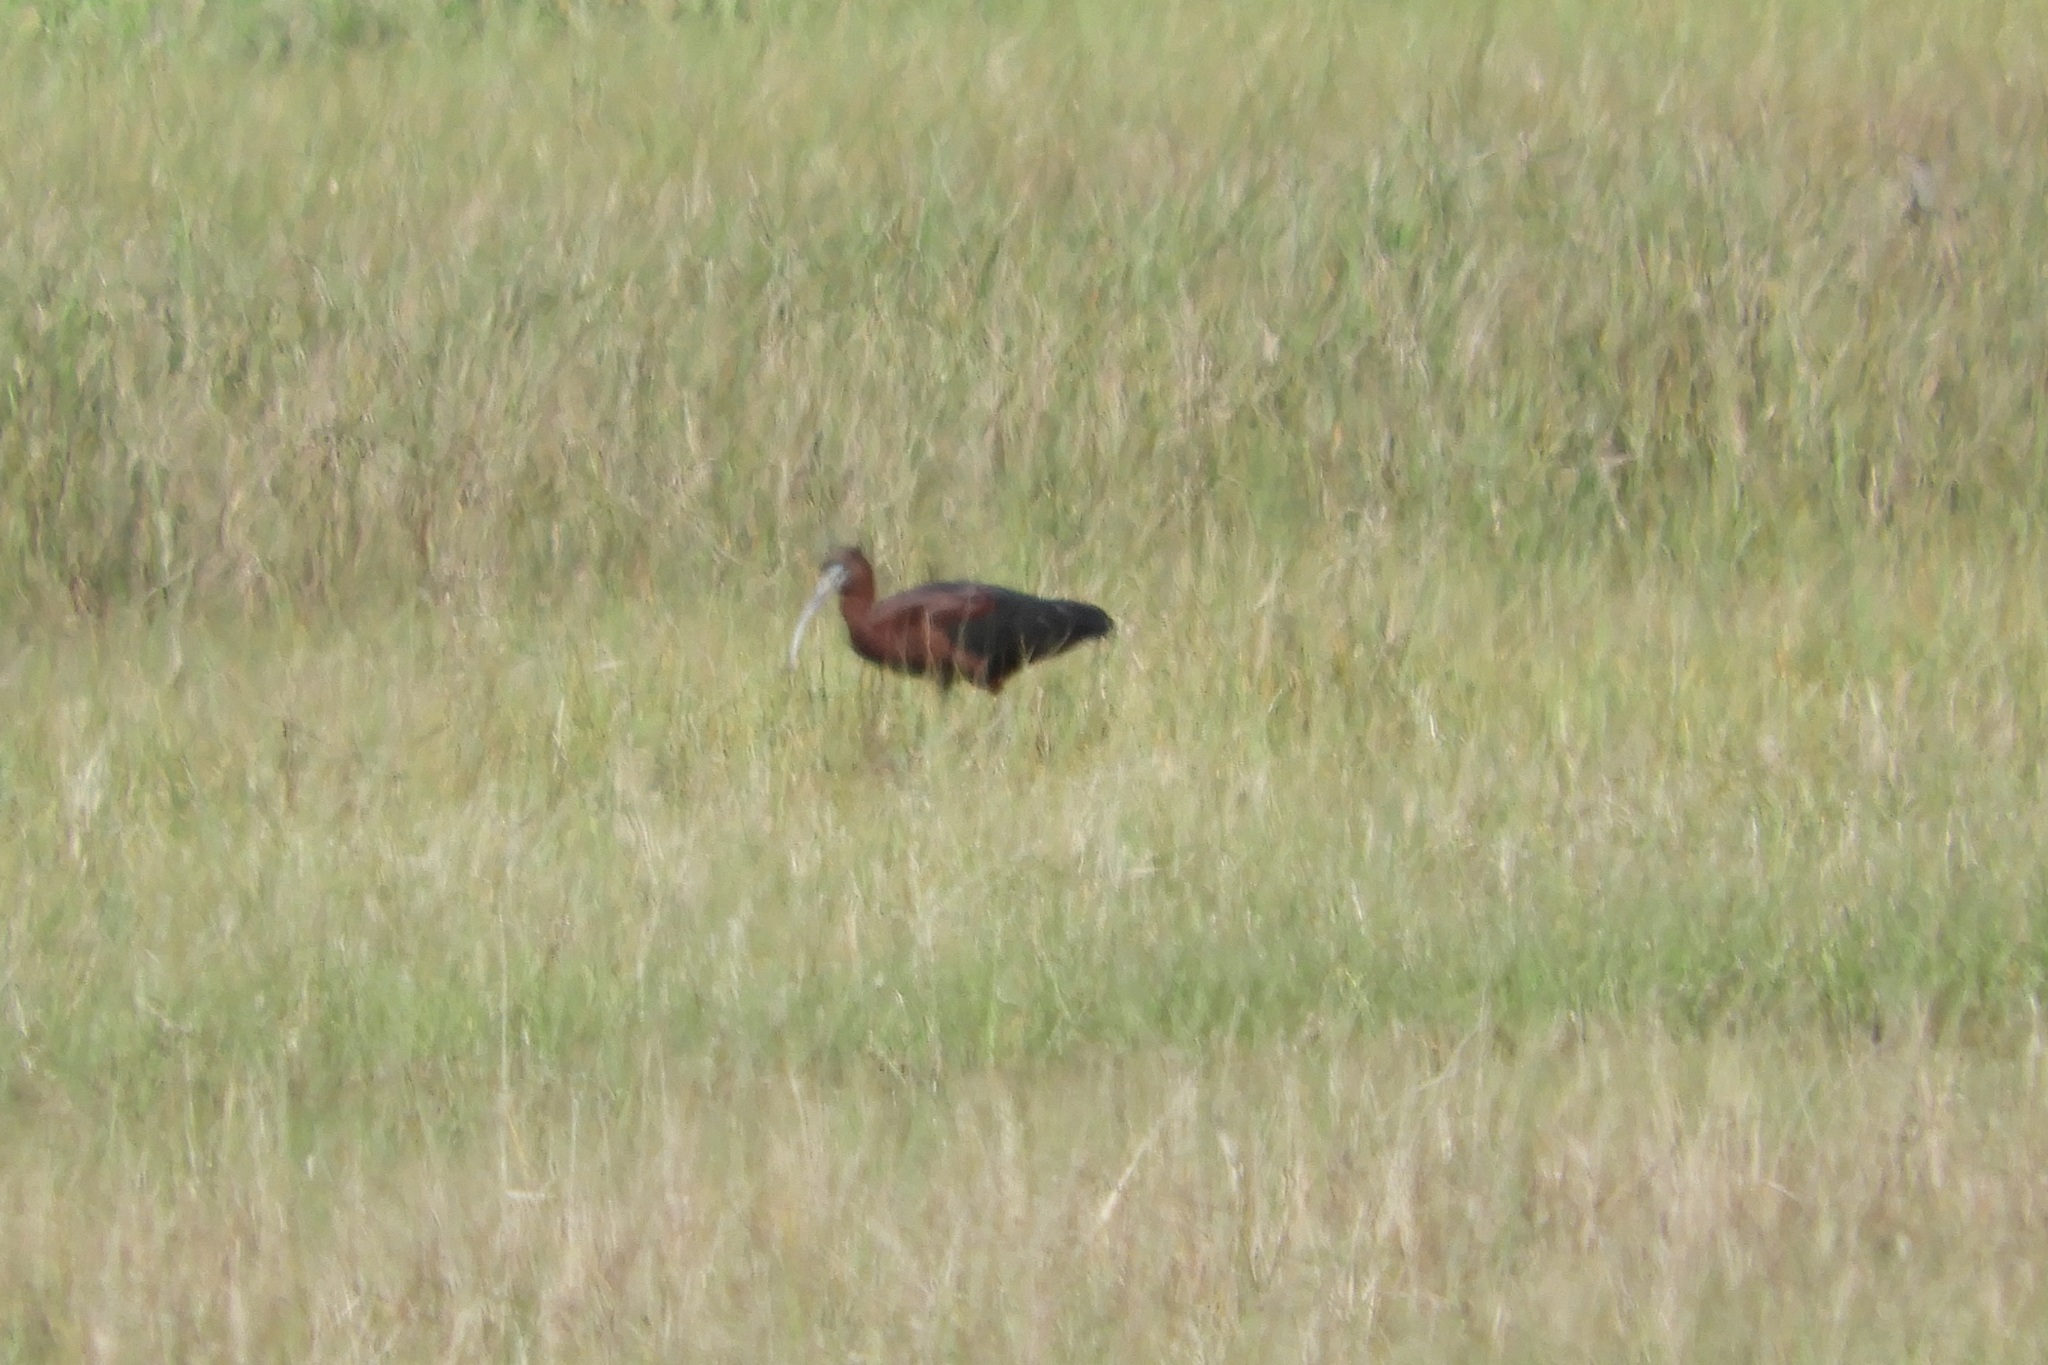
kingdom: Animalia
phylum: Chordata
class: Aves
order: Pelecaniformes
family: Threskiornithidae
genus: Plegadis
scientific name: Plegadis falcinellus
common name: Glossy ibis
